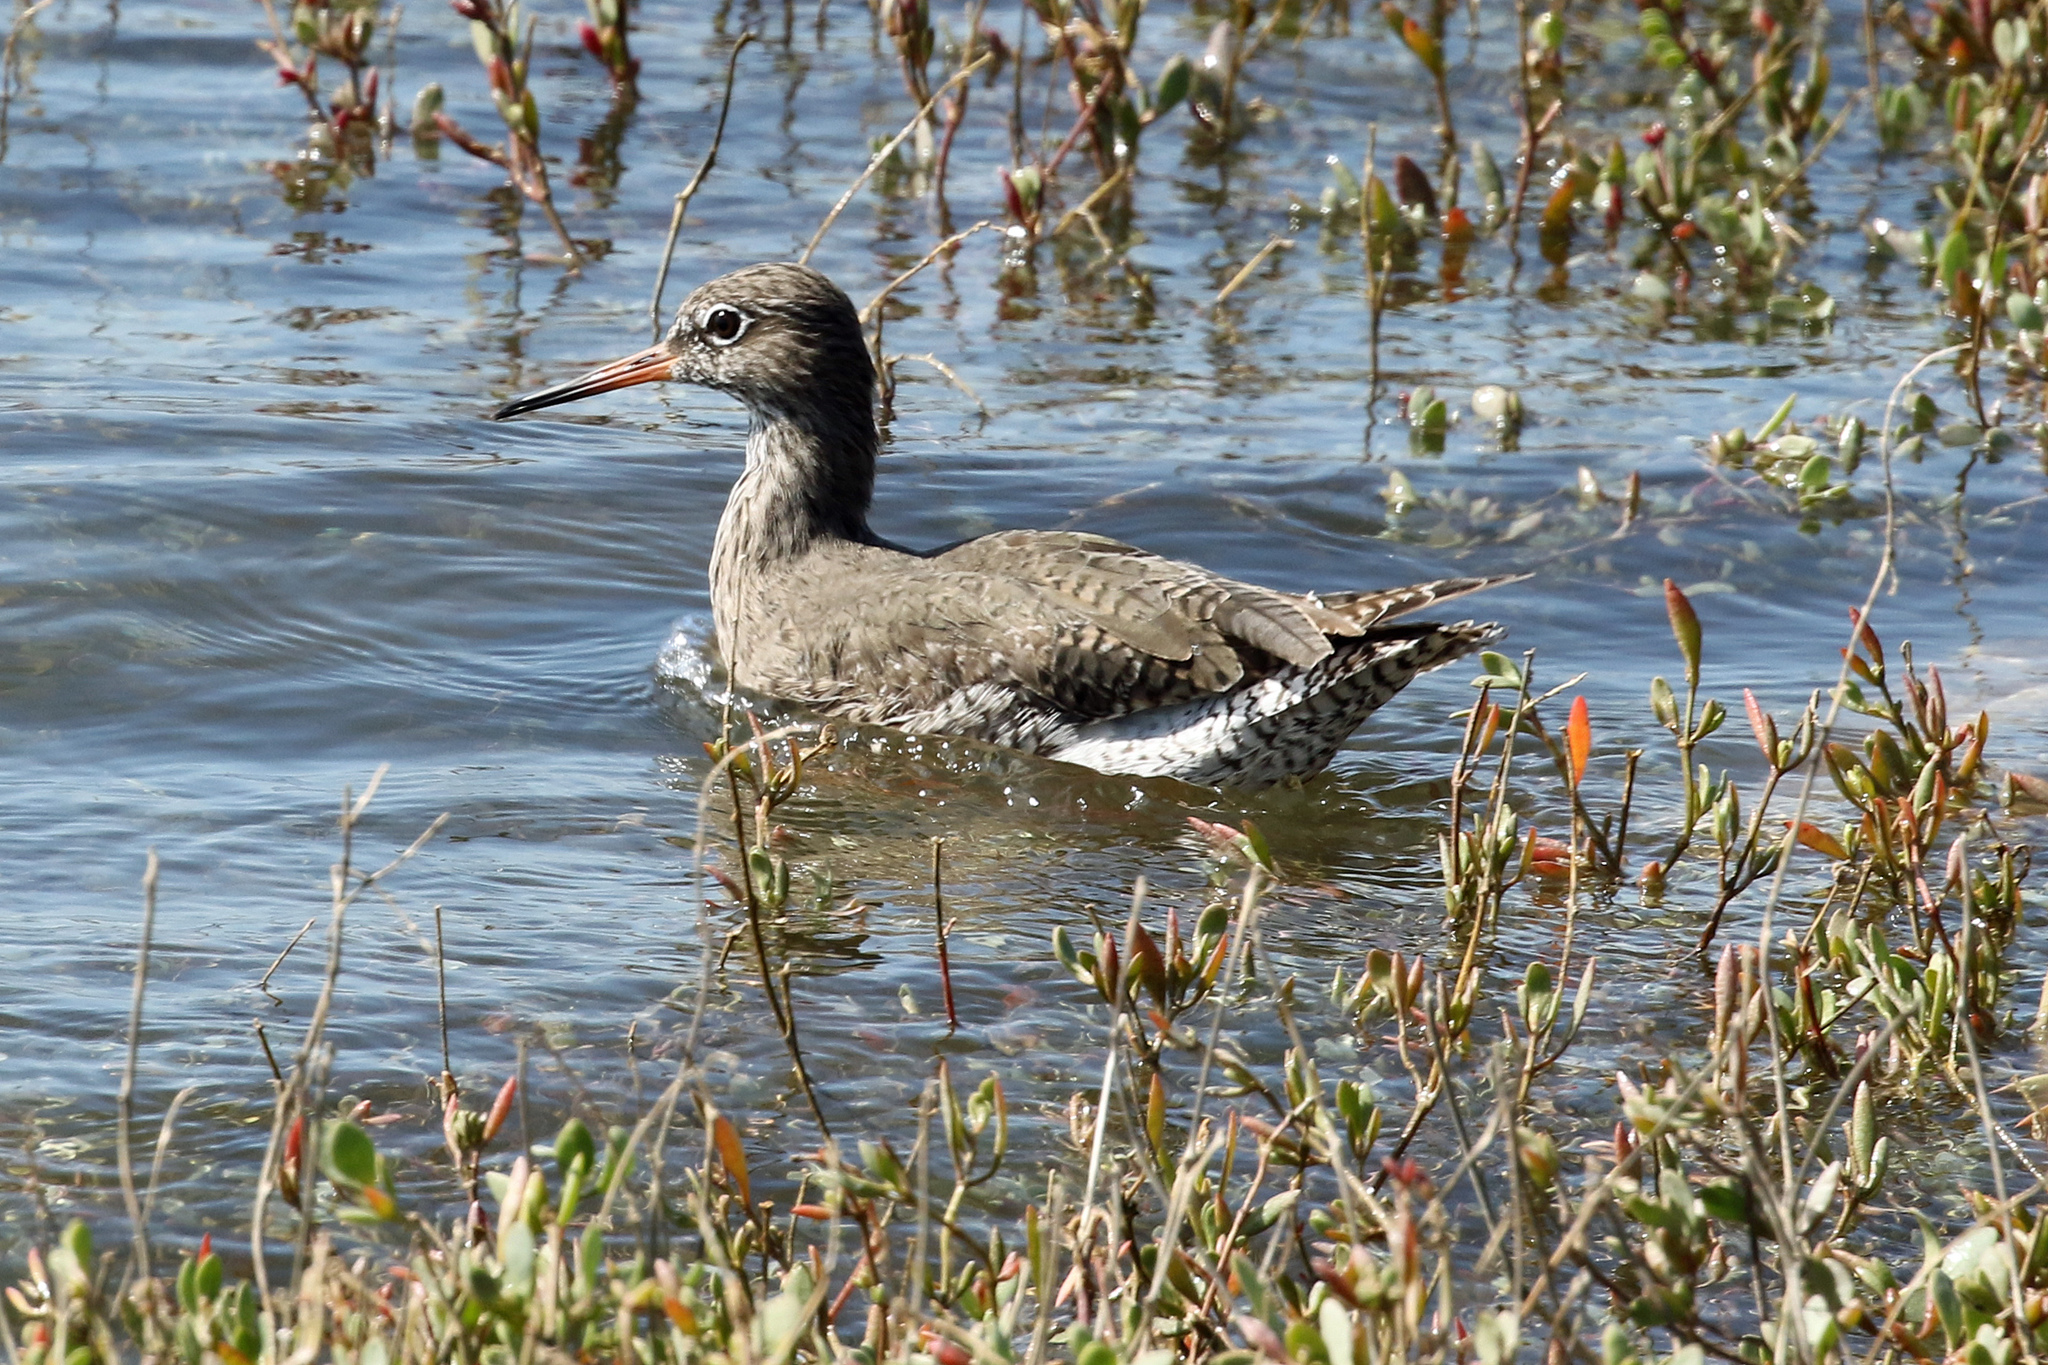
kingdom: Animalia
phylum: Chordata
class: Aves
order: Charadriiformes
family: Scolopacidae
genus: Tringa
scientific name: Tringa totanus
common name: Common redshank
